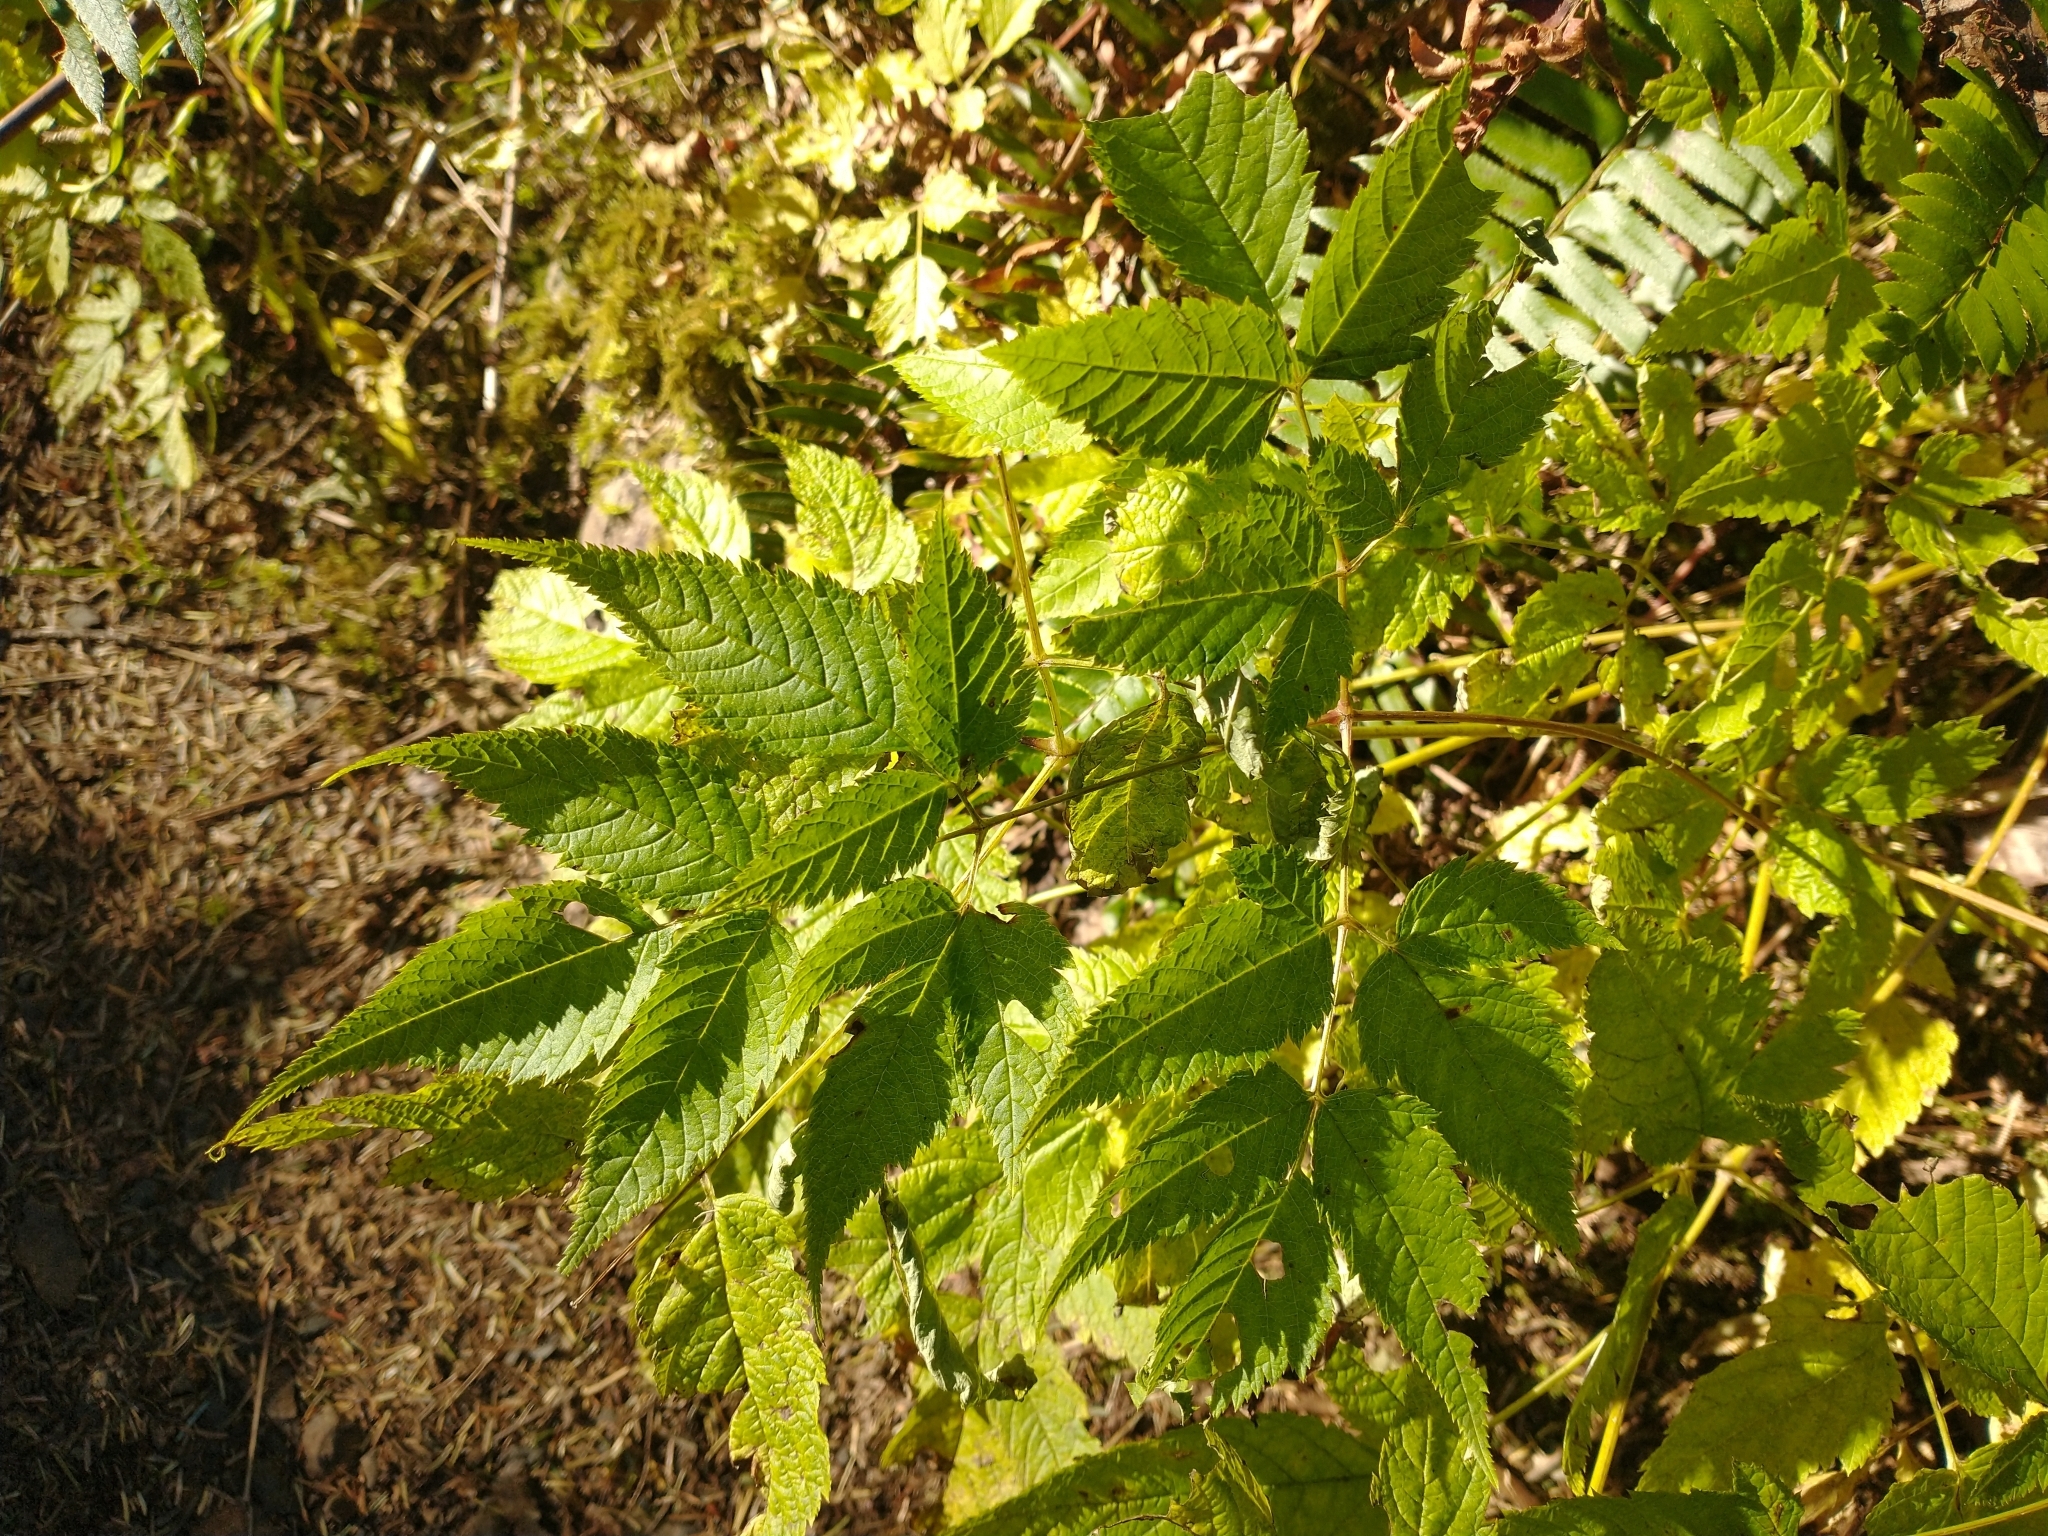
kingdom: Plantae
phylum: Tracheophyta
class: Magnoliopsida
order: Rosales
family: Rosaceae
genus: Aruncus
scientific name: Aruncus dioicus
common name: Buck's-beard
